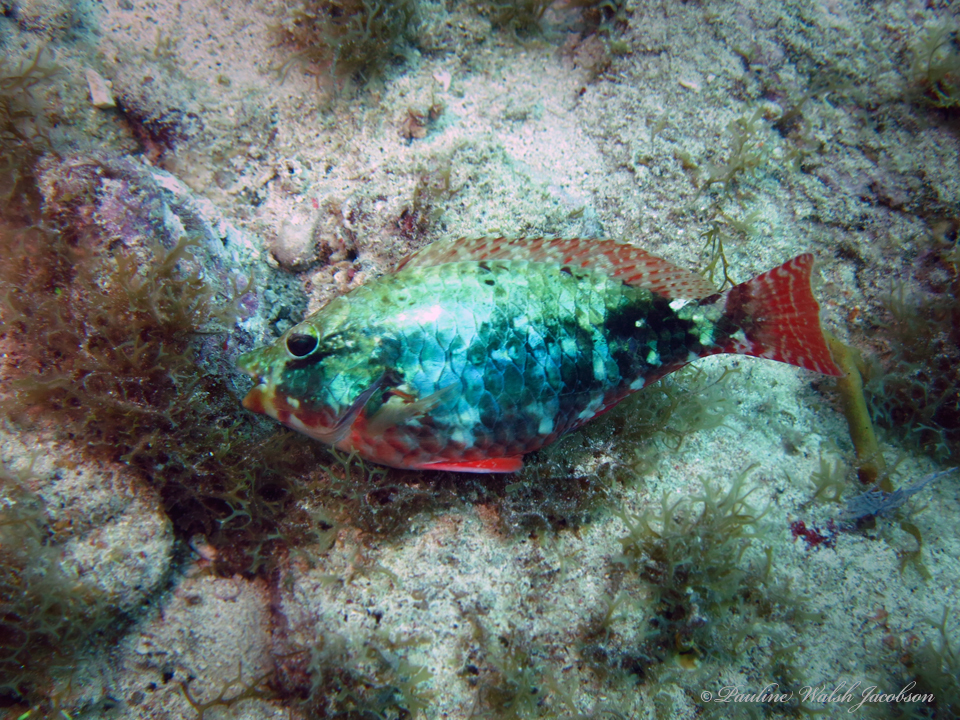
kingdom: Animalia
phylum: Chordata
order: Perciformes
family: Scaridae
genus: Sparisoma
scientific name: Sparisoma aurofrenatum
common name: Redband parrotfish
